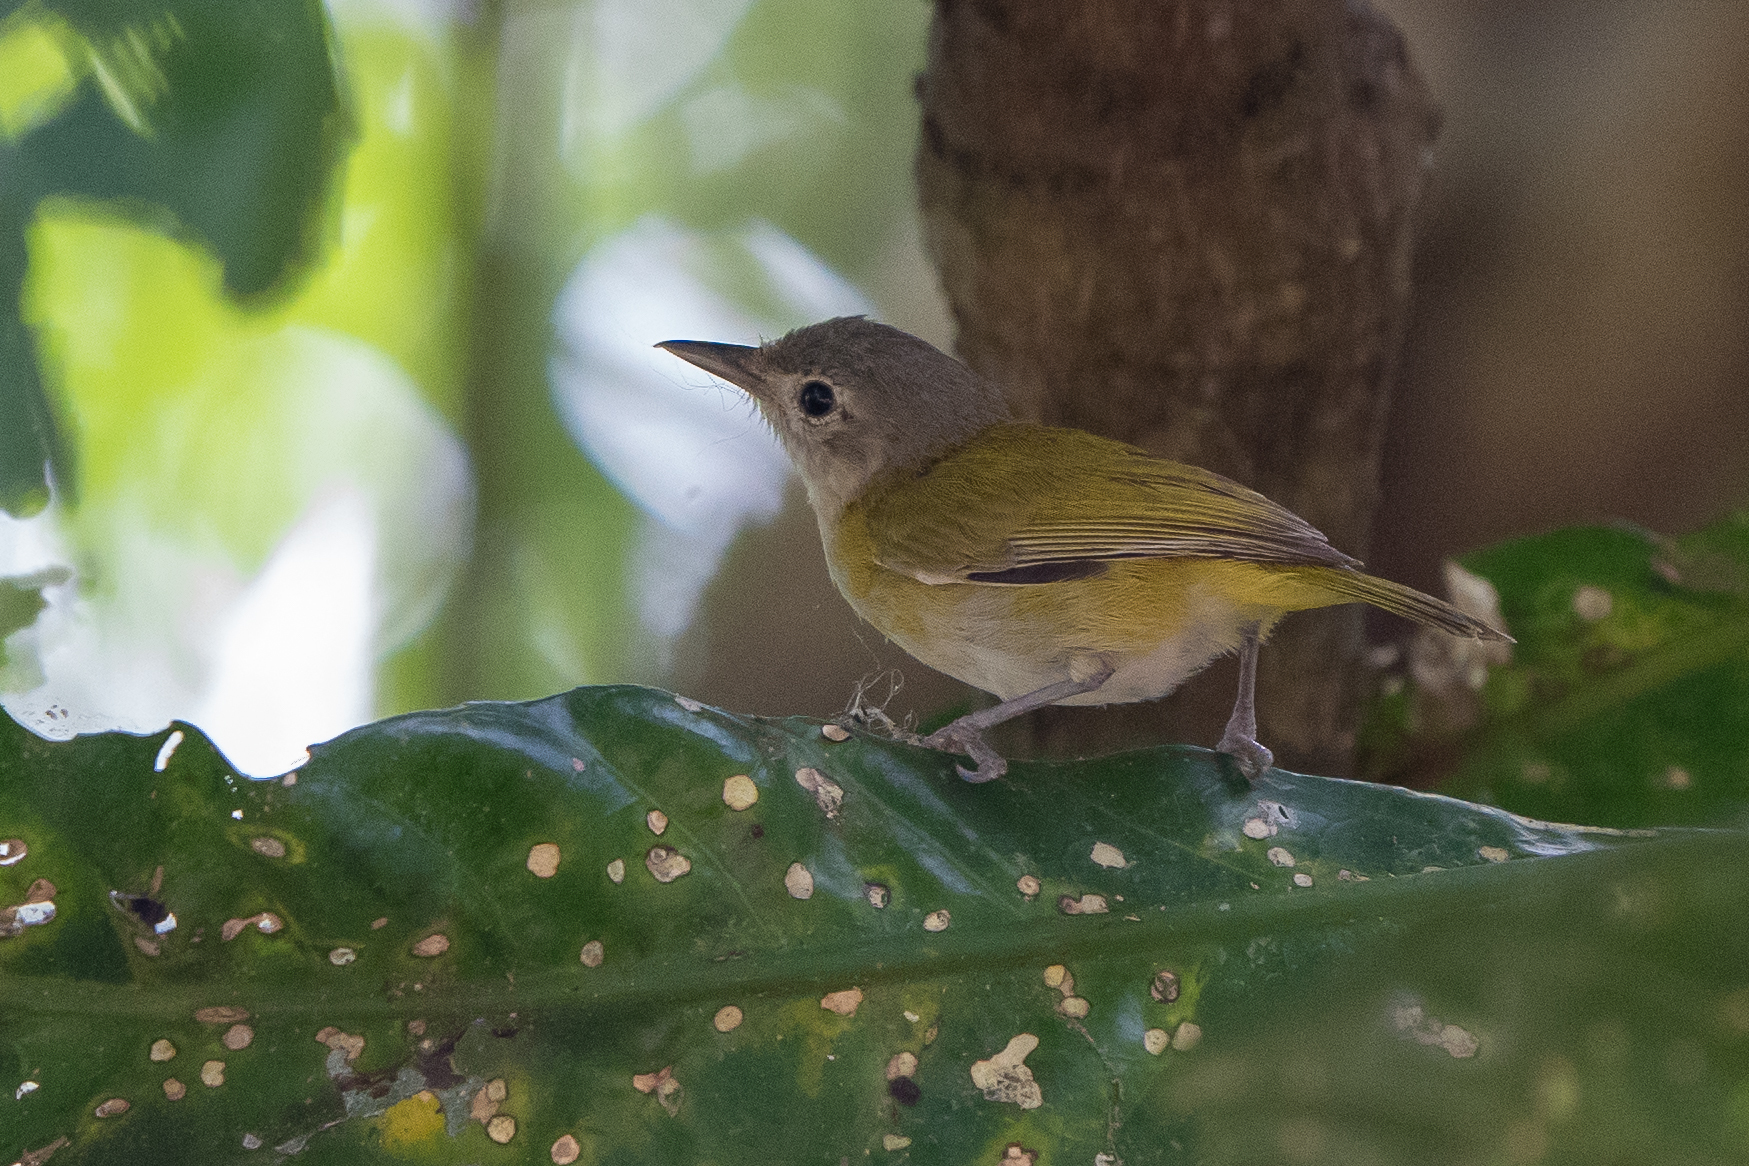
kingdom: Animalia
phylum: Chordata
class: Aves
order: Passeriformes
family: Vireonidae
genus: Hylophilus
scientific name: Hylophilus decurtatus
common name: Lesser greenlet
